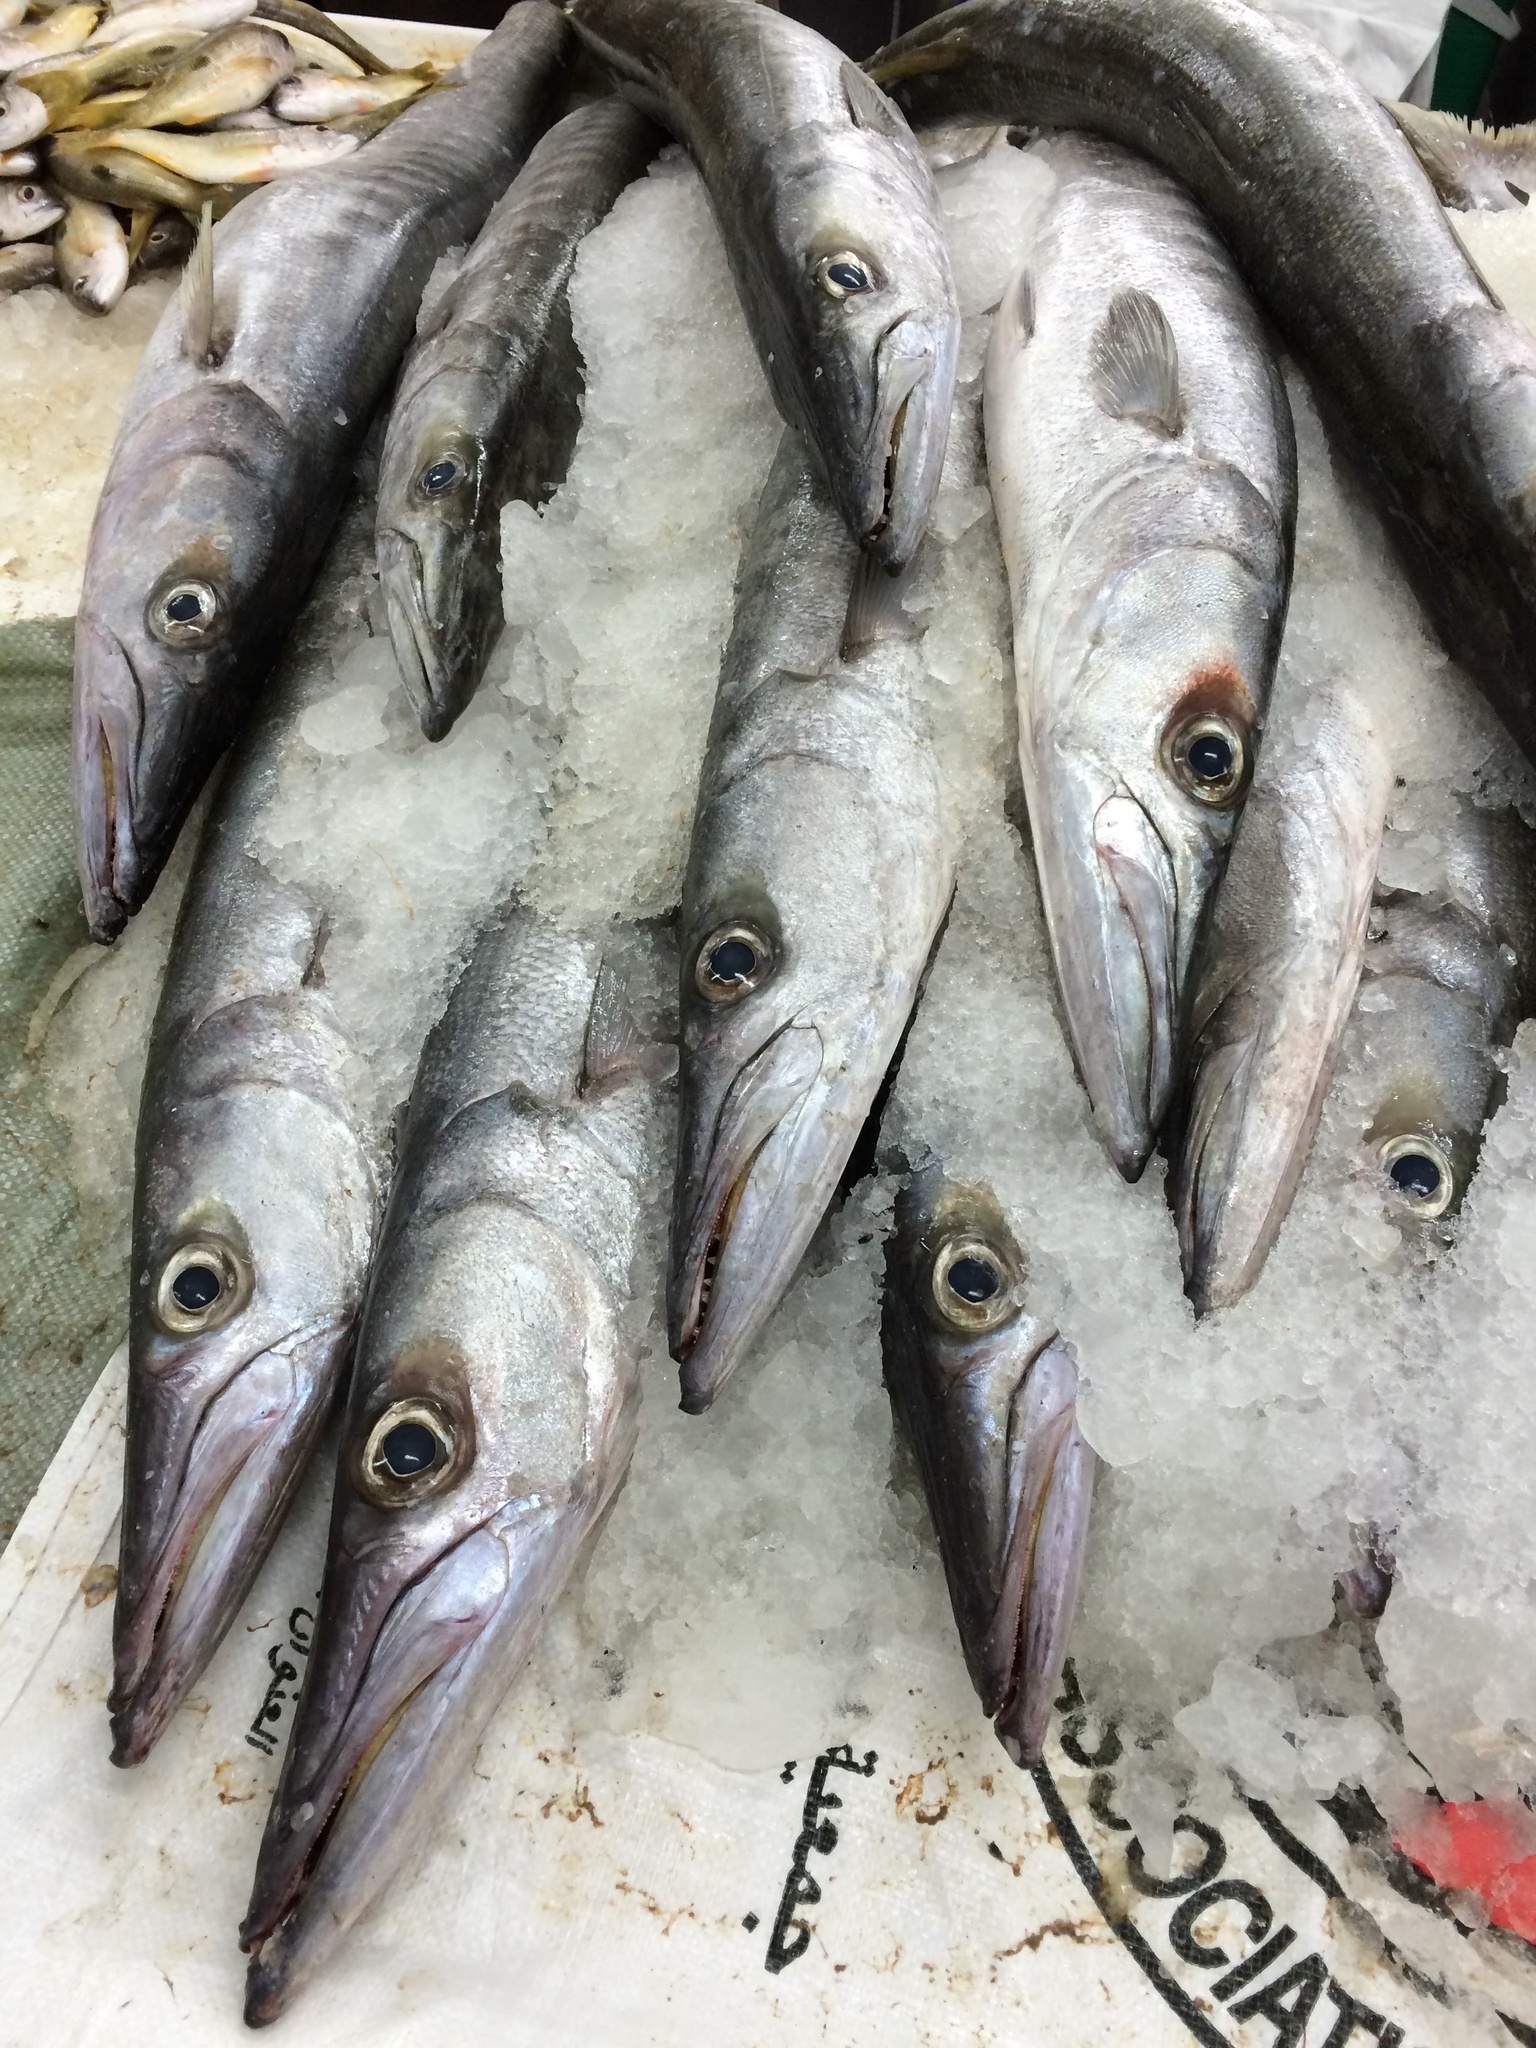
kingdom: Animalia
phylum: Chordata
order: Perciformes
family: Sphyraenidae
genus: Sphyraena
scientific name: Sphyraena jello
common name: Pickhandle barracuda
